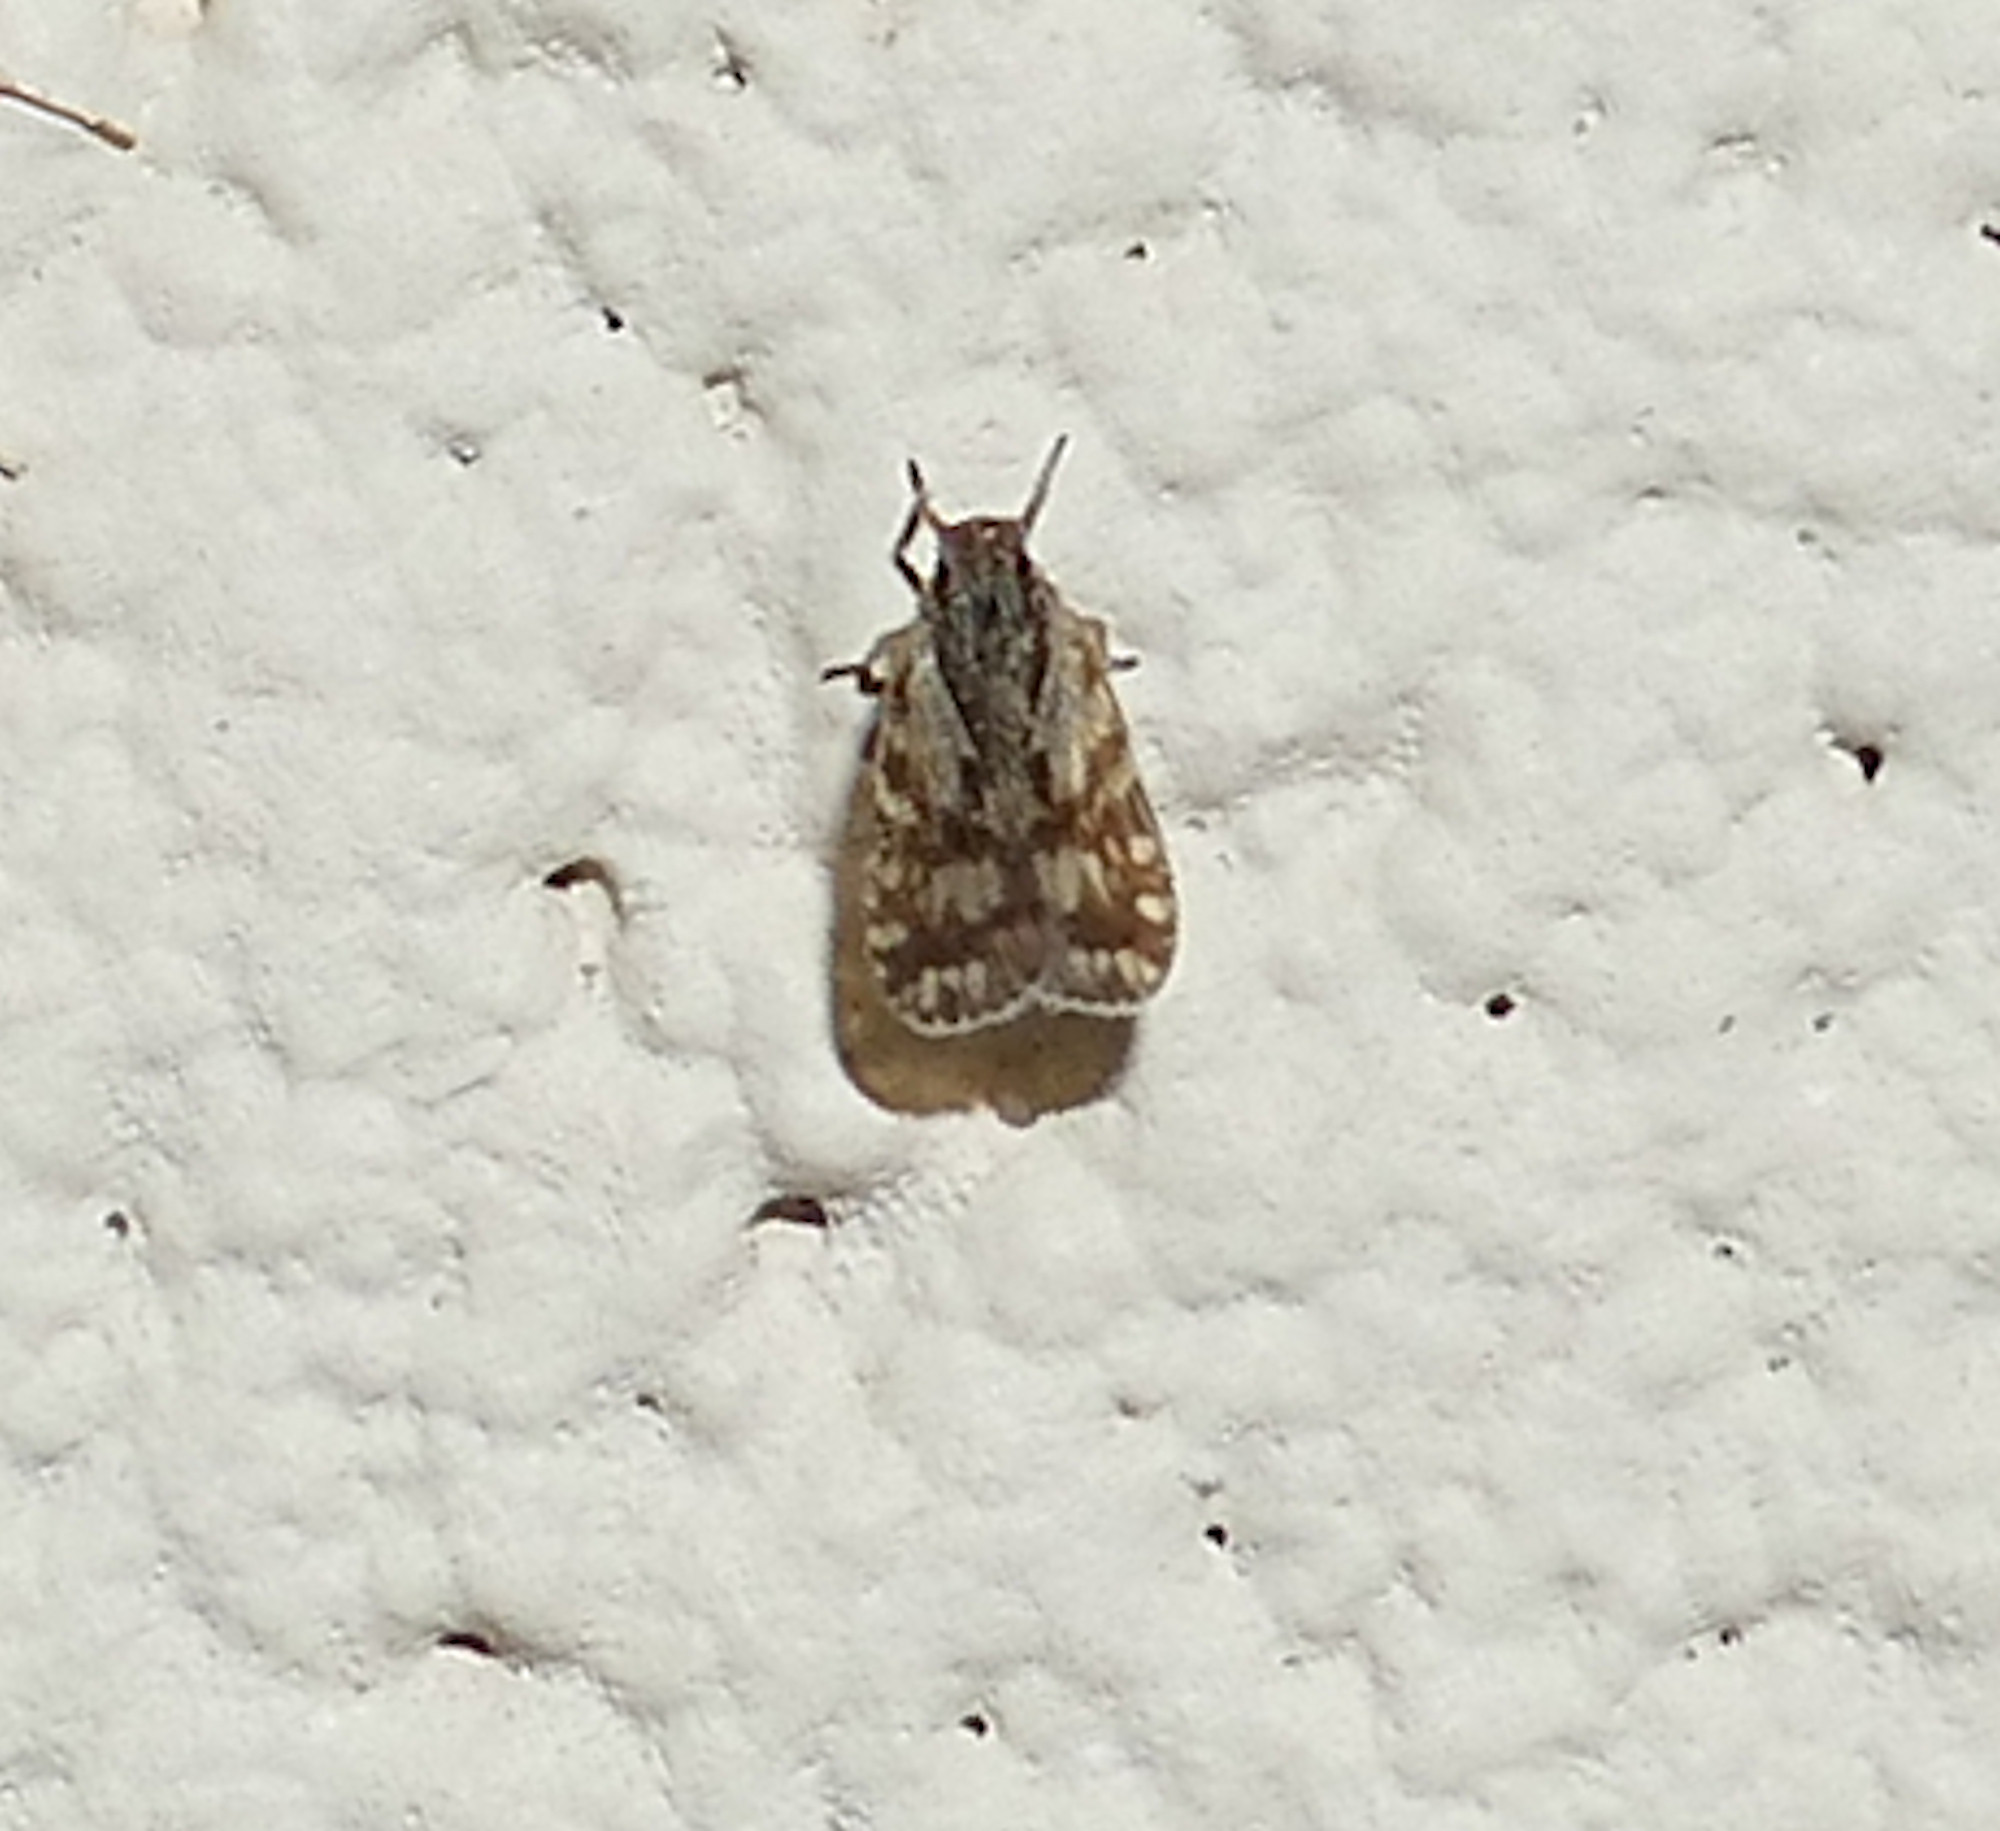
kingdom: Animalia
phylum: Arthropoda
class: Insecta
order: Hemiptera
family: Cixiidae
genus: Bothriocera
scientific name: Bothriocera maculata
